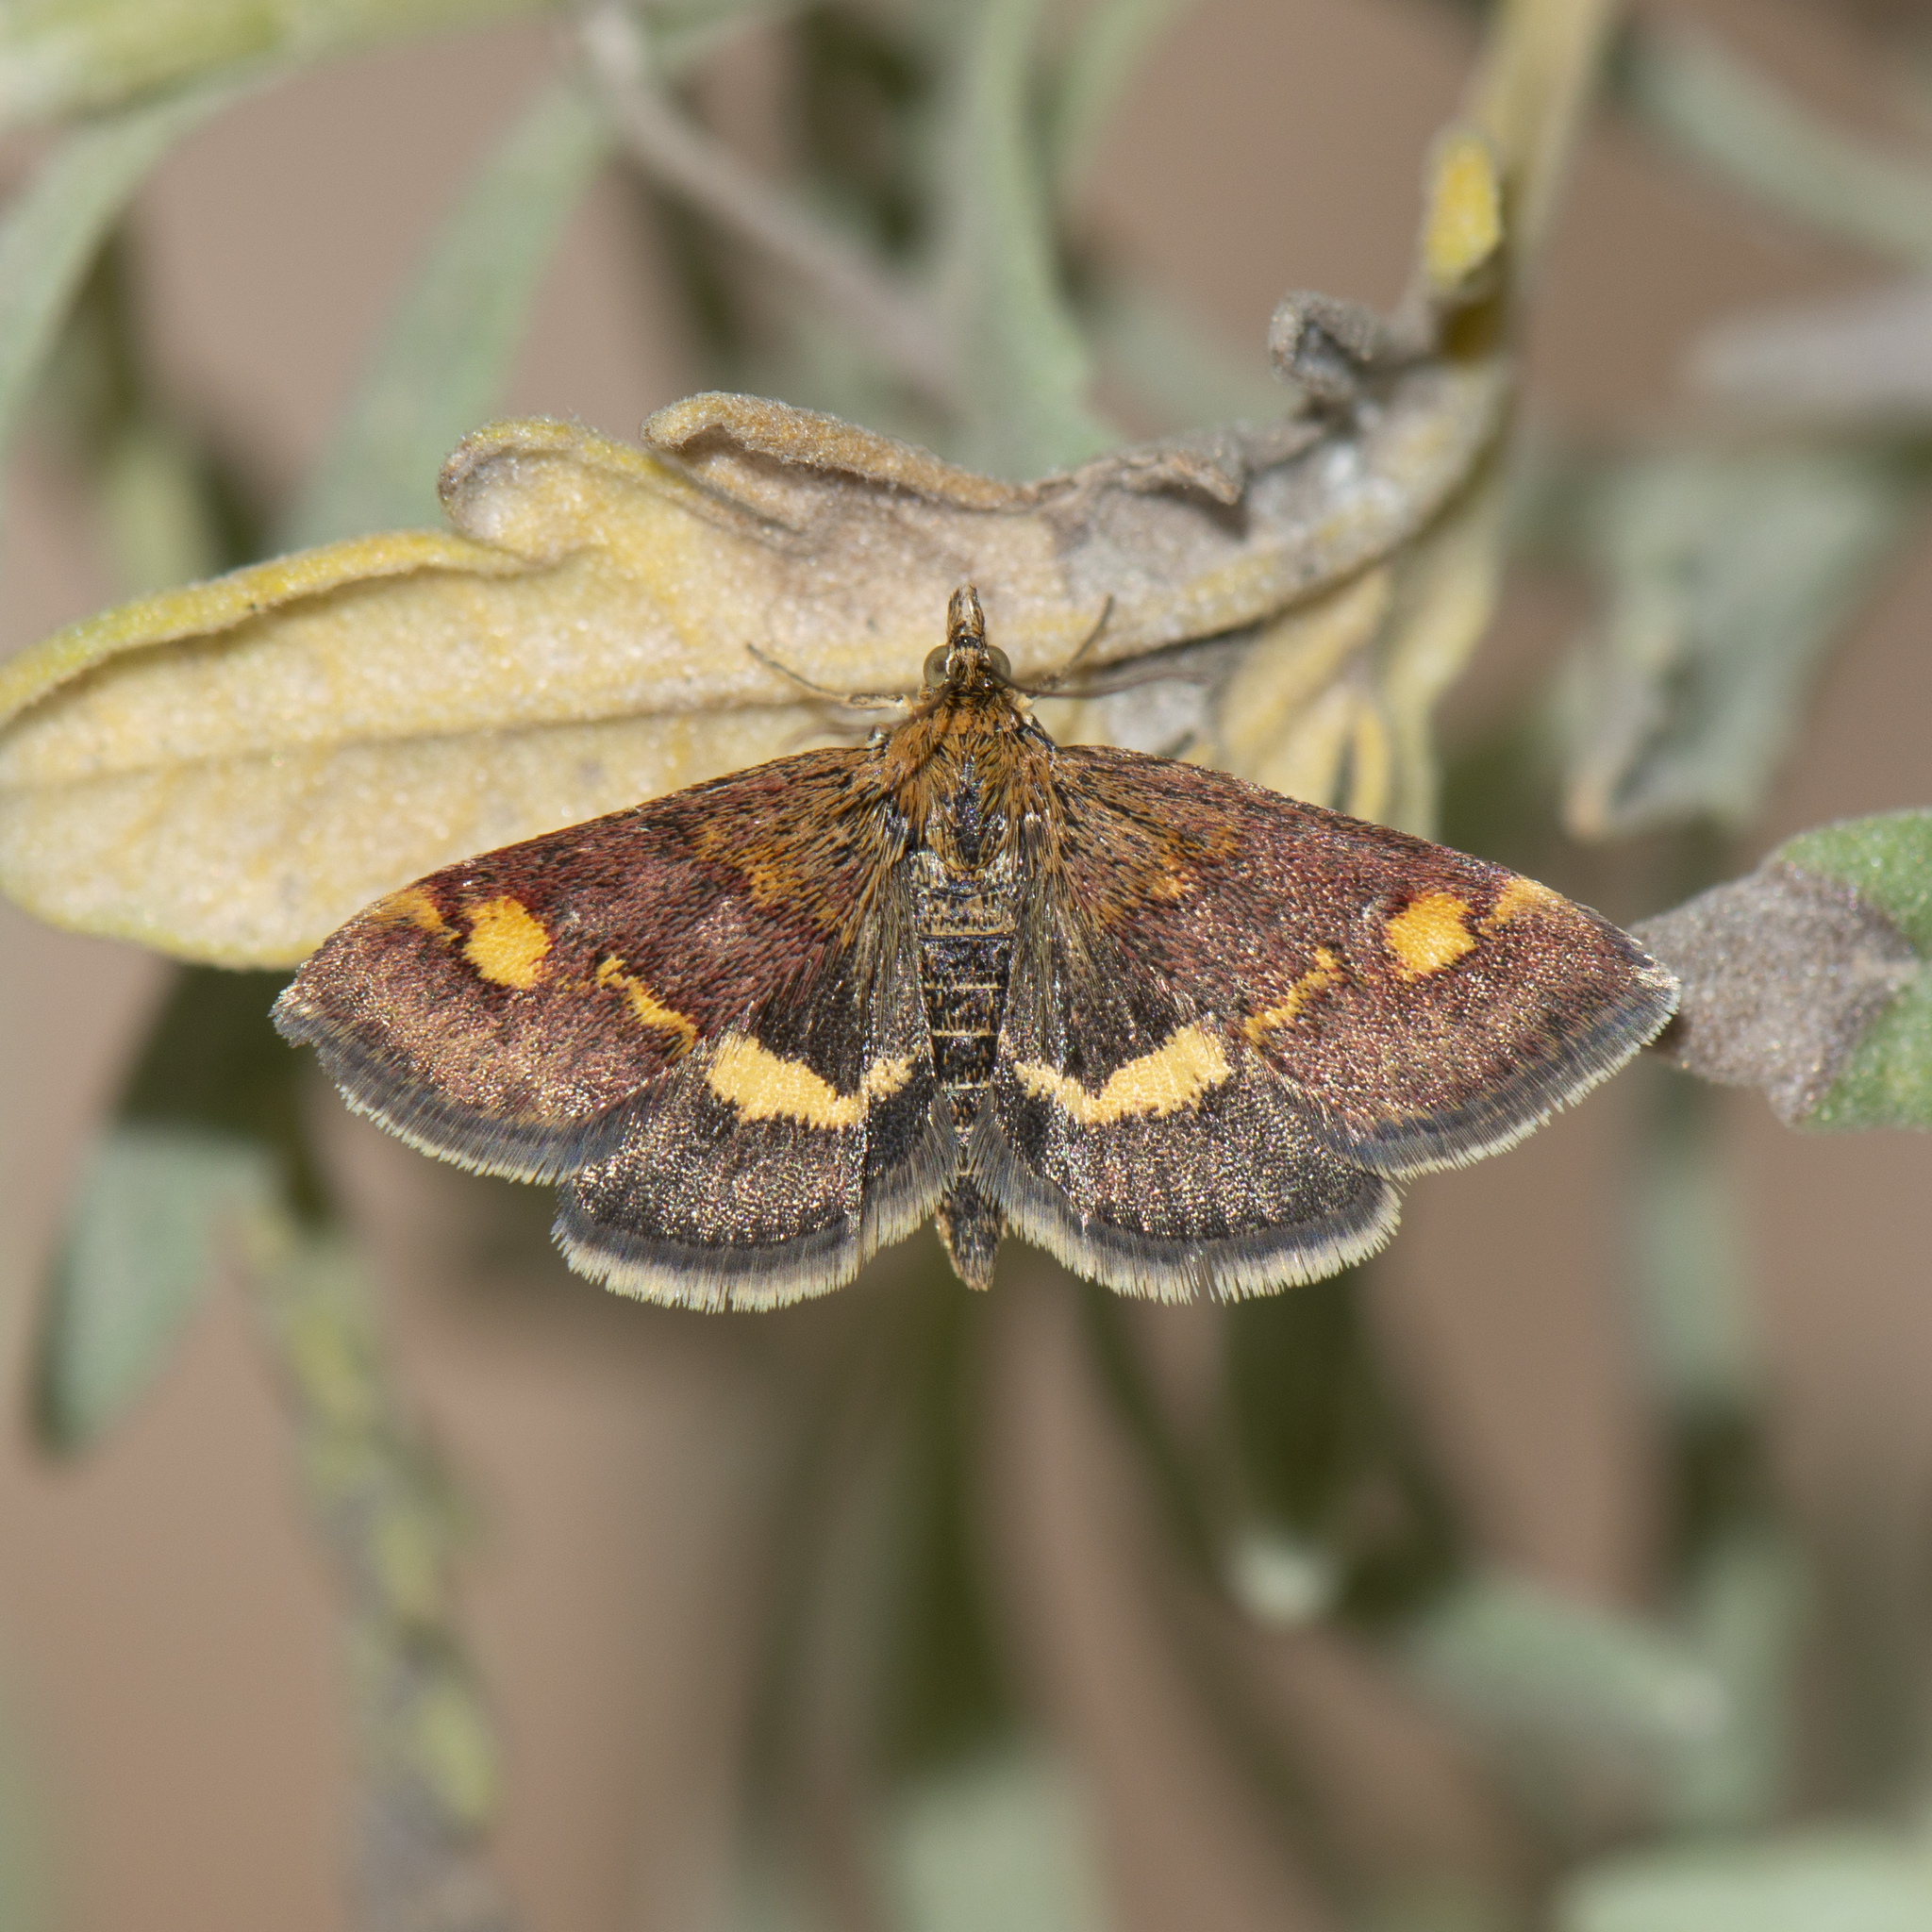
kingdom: Animalia
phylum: Arthropoda
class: Insecta
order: Lepidoptera
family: Crambidae
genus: Pyrausta
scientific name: Pyrausta aurata
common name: Small purple & gold
